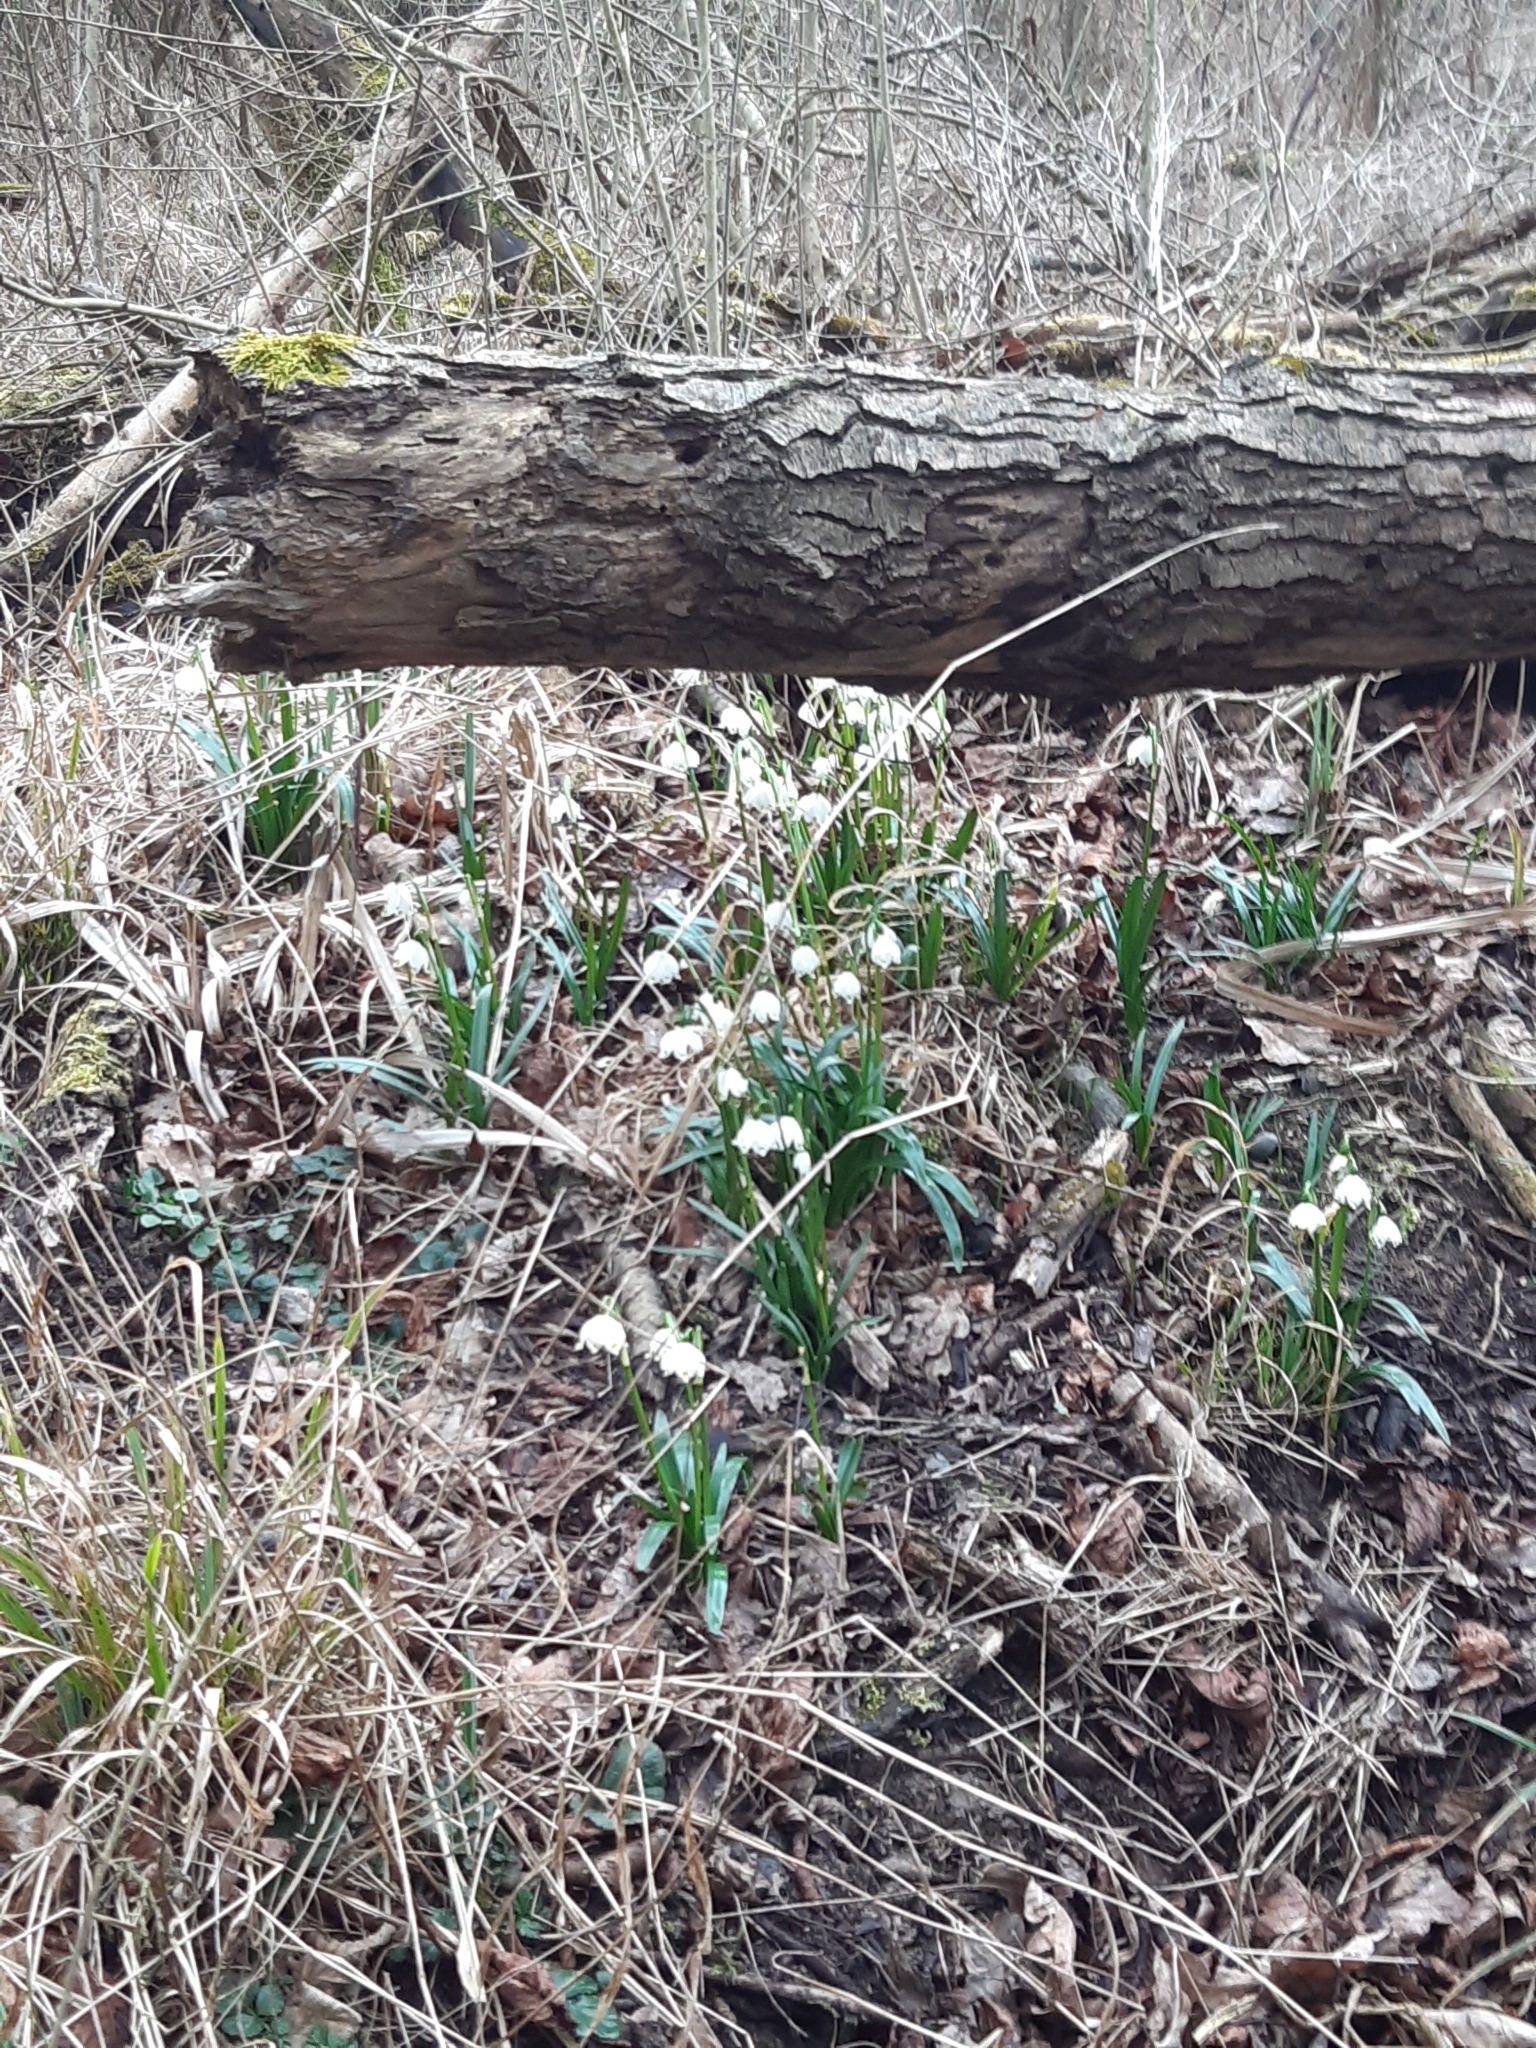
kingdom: Plantae
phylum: Tracheophyta
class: Liliopsida
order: Asparagales
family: Amaryllidaceae
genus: Leucojum
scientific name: Leucojum vernum
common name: Spring snowflake
